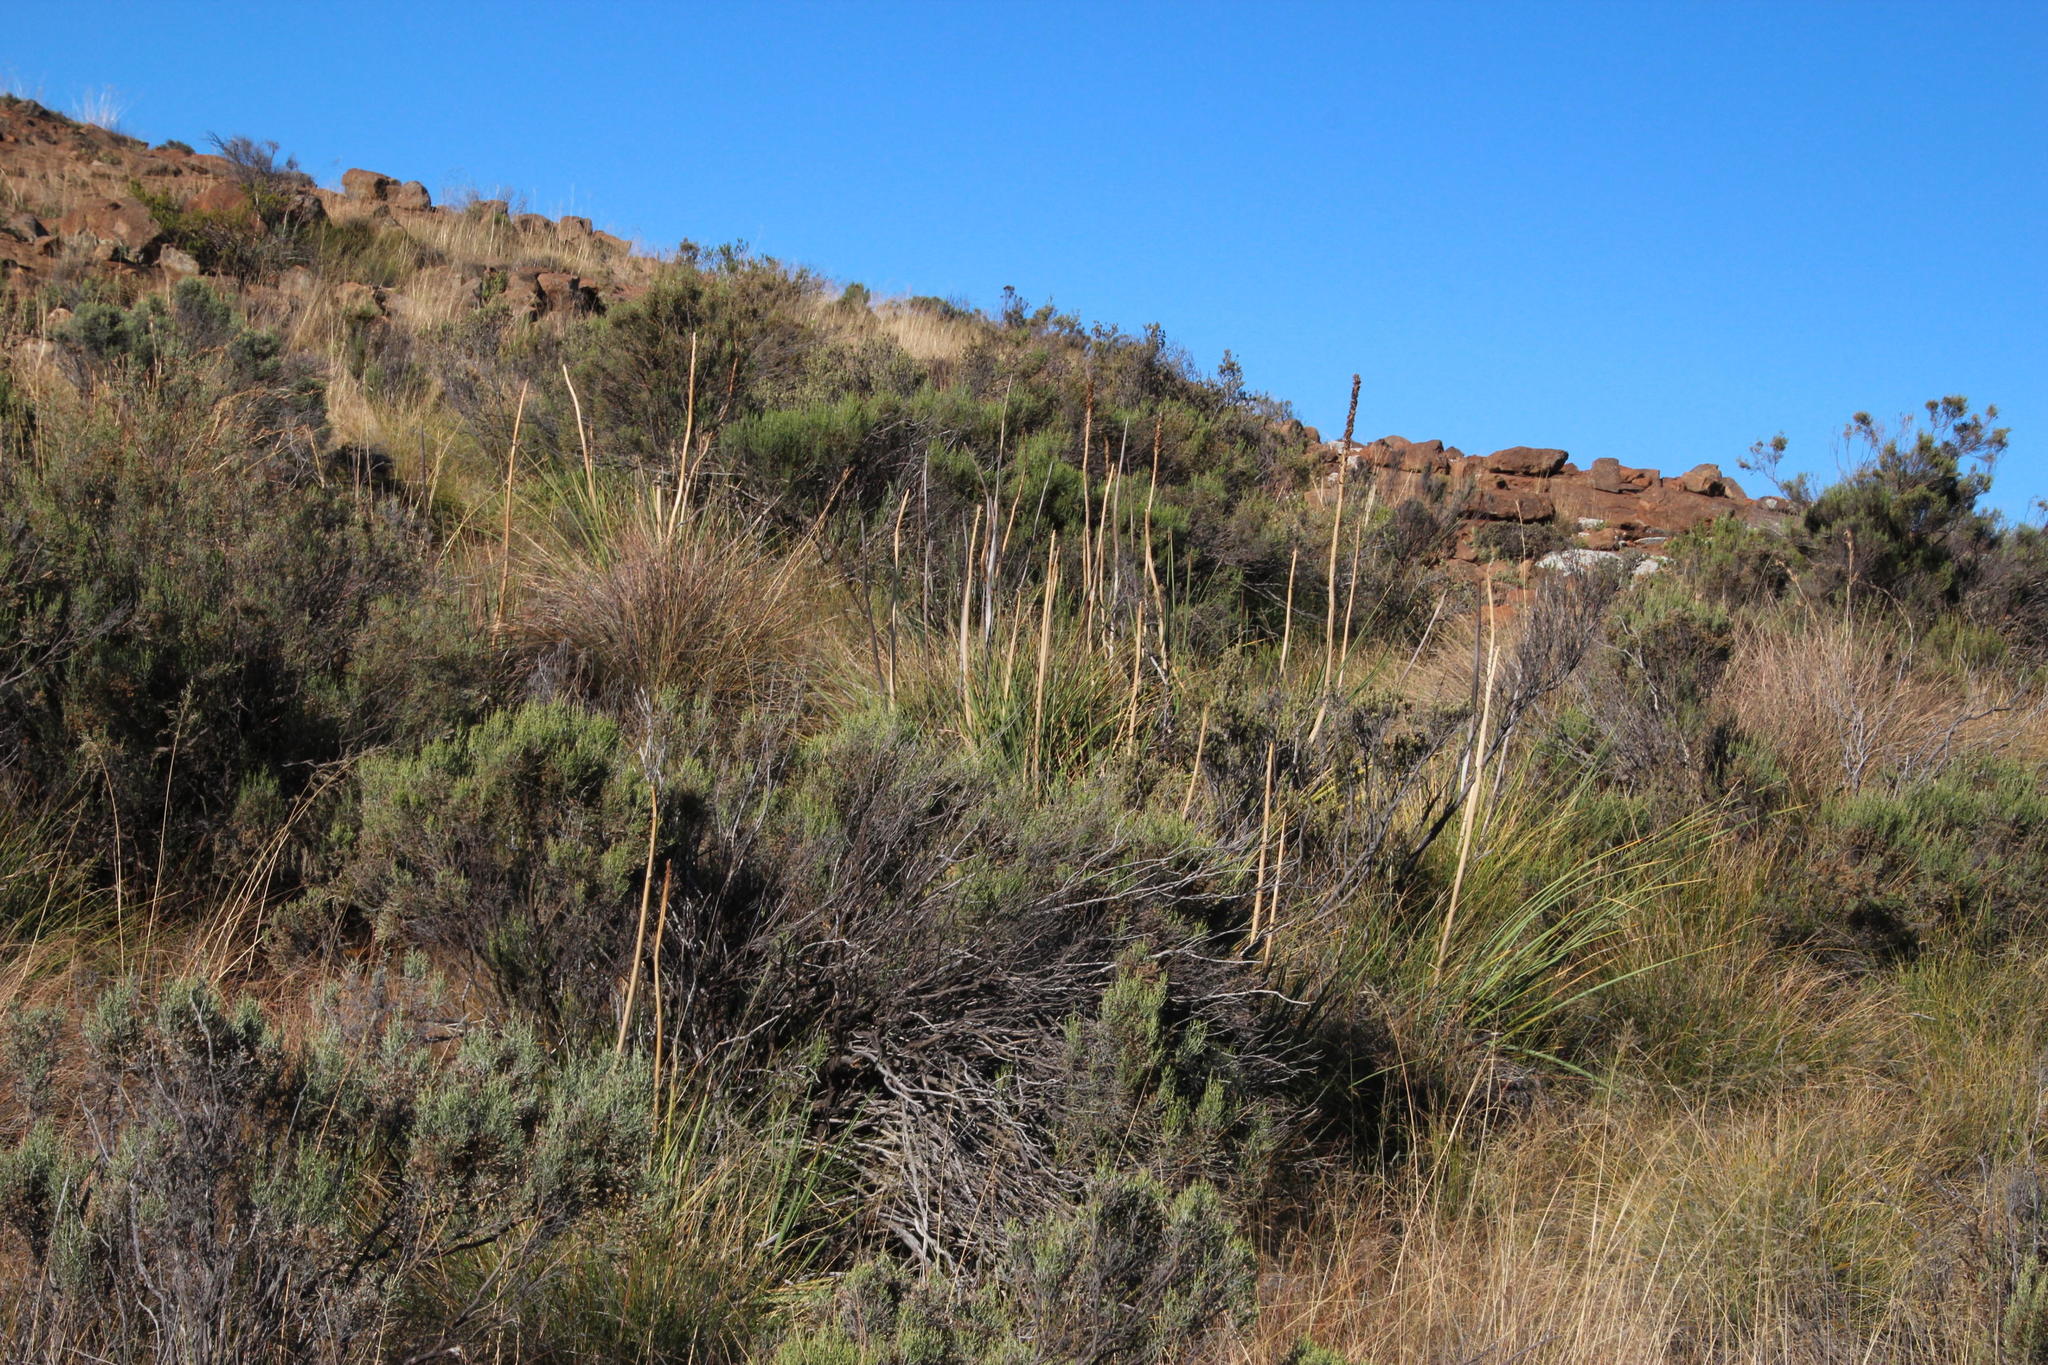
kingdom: Plantae
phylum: Tracheophyta
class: Liliopsida
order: Asparagales
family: Asphodelaceae
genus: Kniphofia
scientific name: Kniphofia stricta
